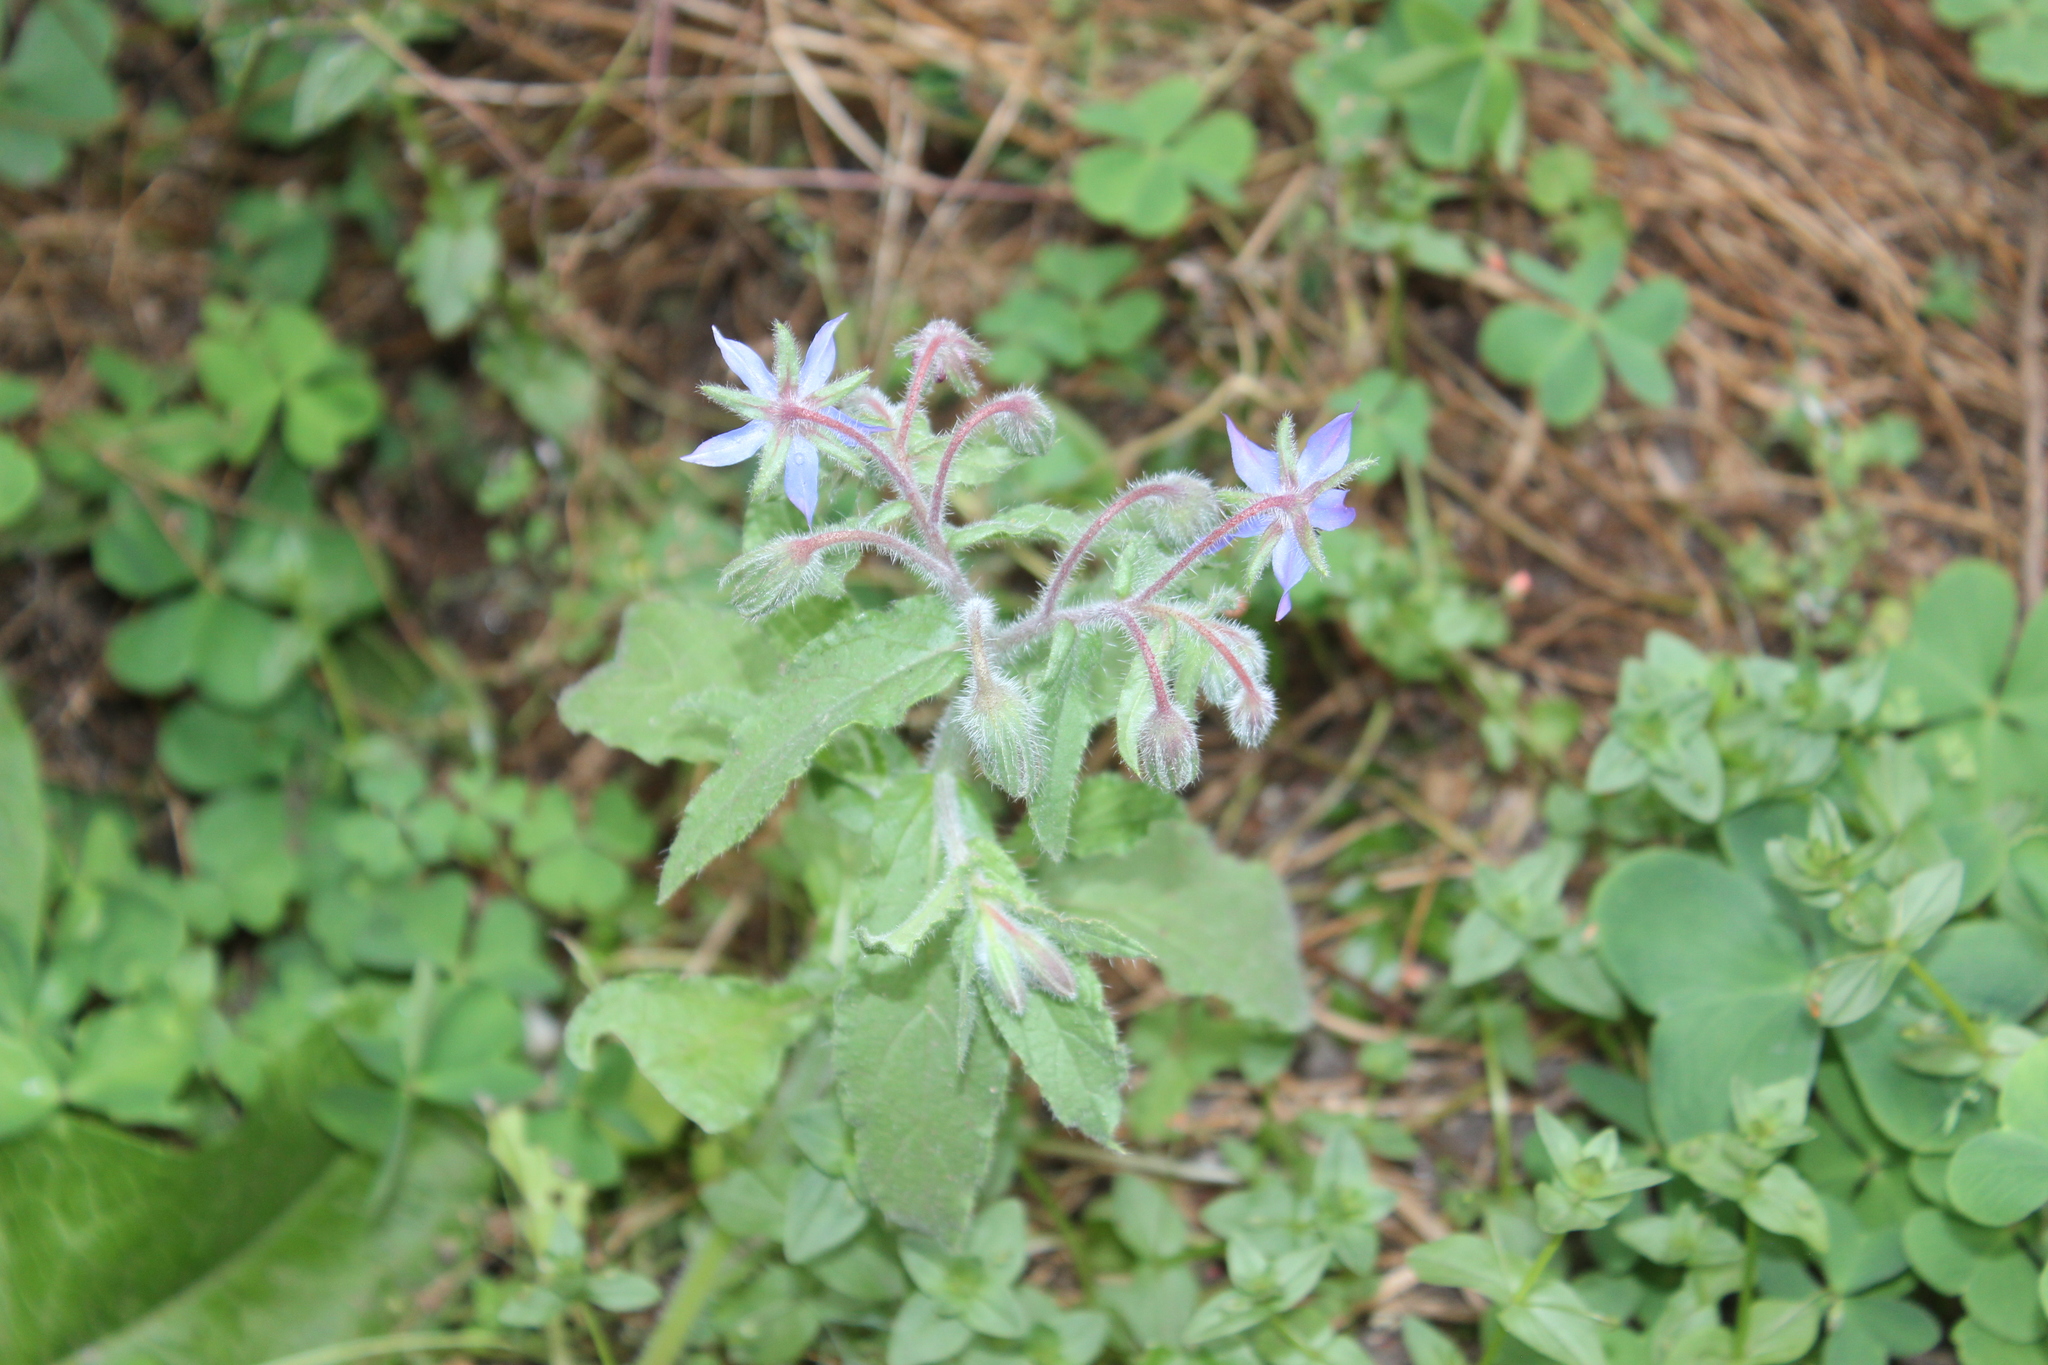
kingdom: Plantae
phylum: Tracheophyta
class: Magnoliopsida
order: Boraginales
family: Boraginaceae
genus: Borago
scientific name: Borago officinalis
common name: Borage
